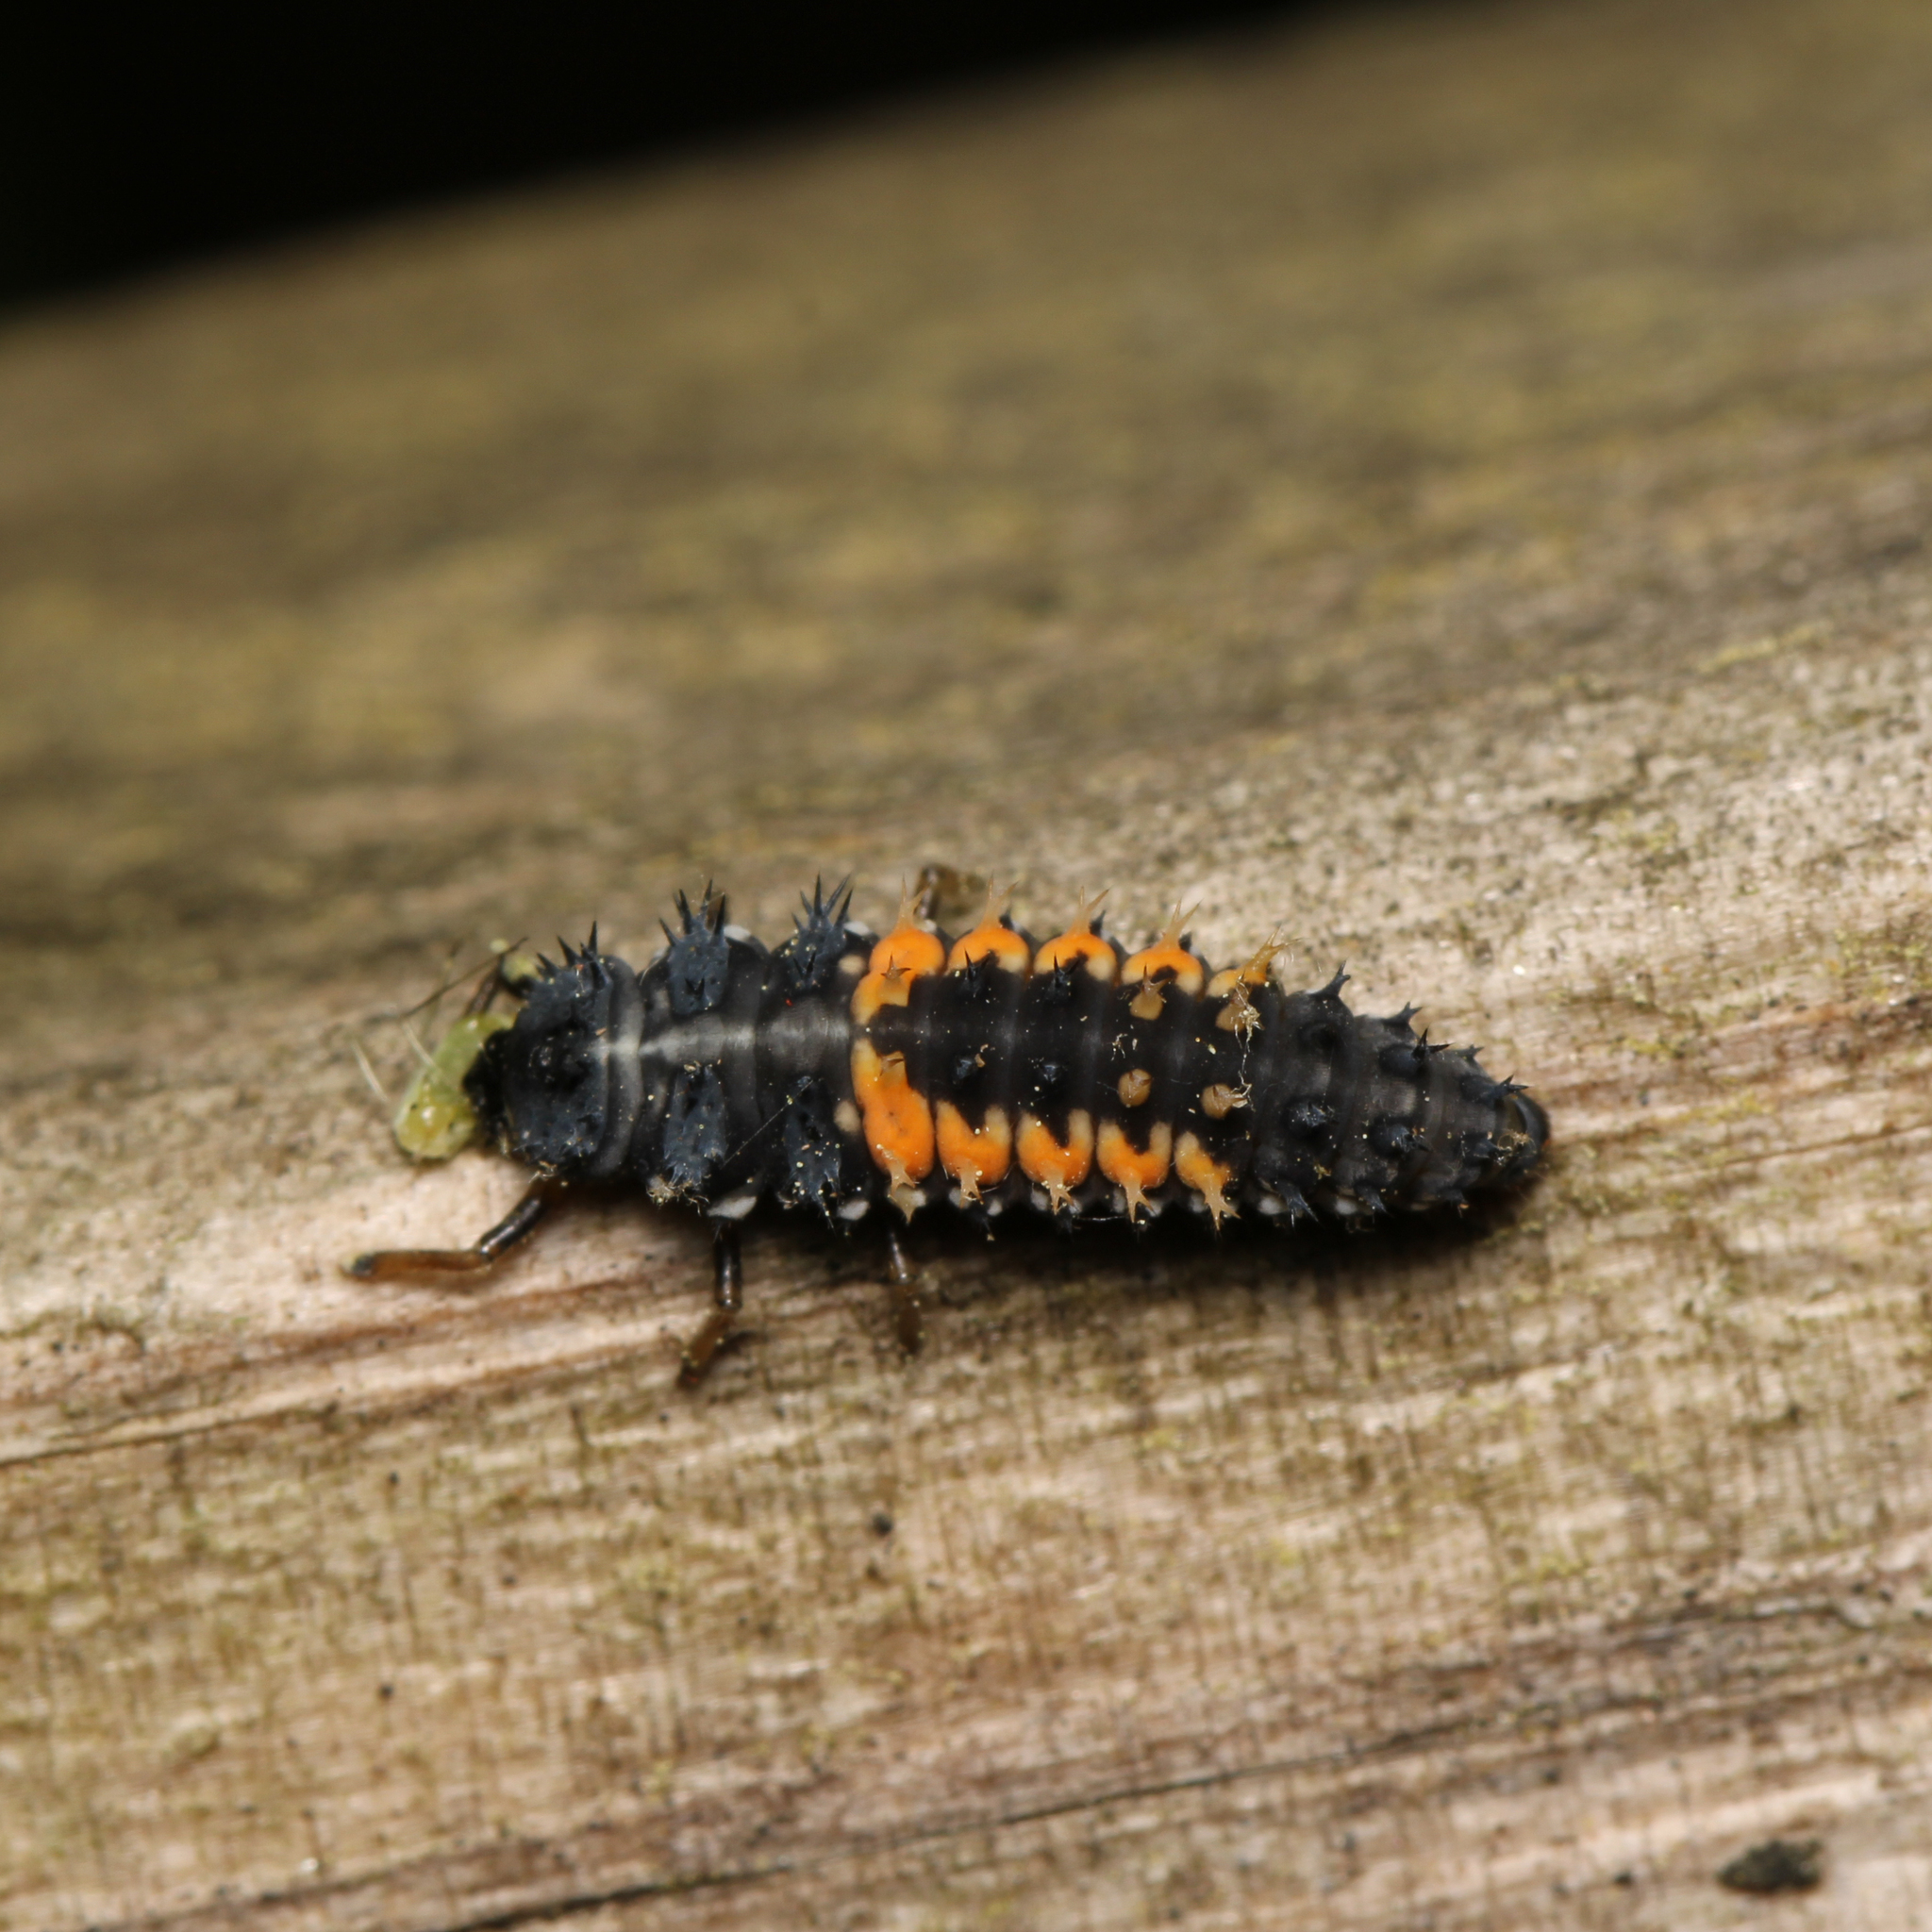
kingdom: Animalia
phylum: Arthropoda
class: Insecta
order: Coleoptera
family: Coccinellidae
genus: Harmonia
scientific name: Harmonia axyridis
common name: Harlequin ladybird
